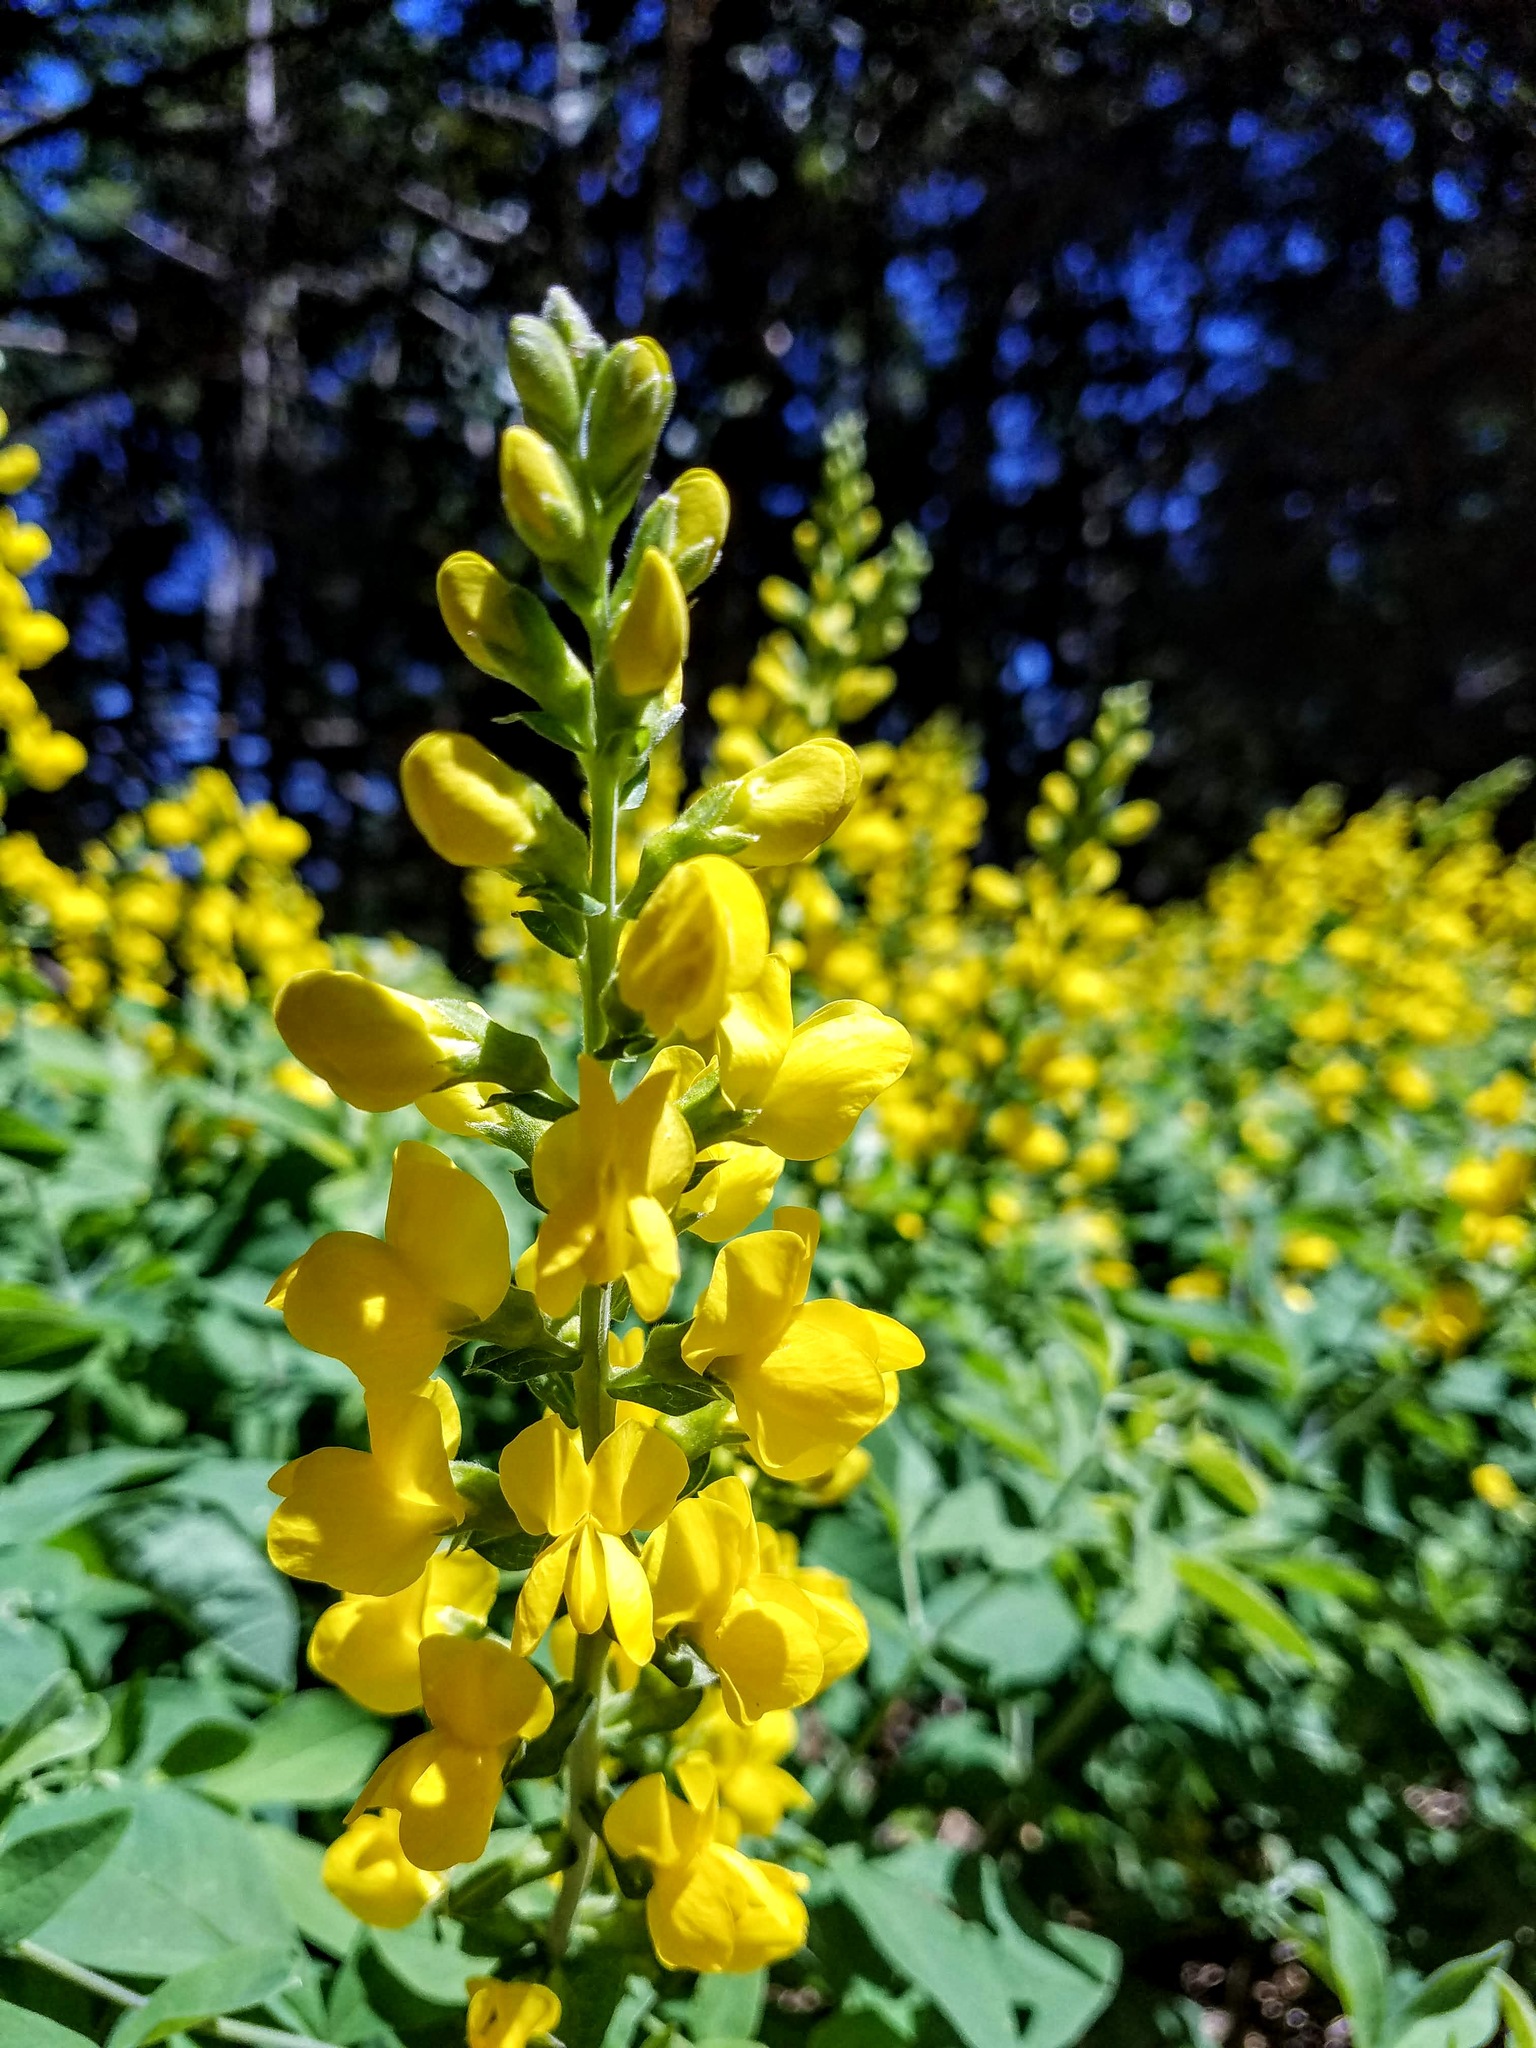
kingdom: Plantae
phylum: Tracheophyta
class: Magnoliopsida
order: Fabales
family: Fabaceae
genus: Thermopsis
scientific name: Thermopsis gracilis
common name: Slender golden-banner
